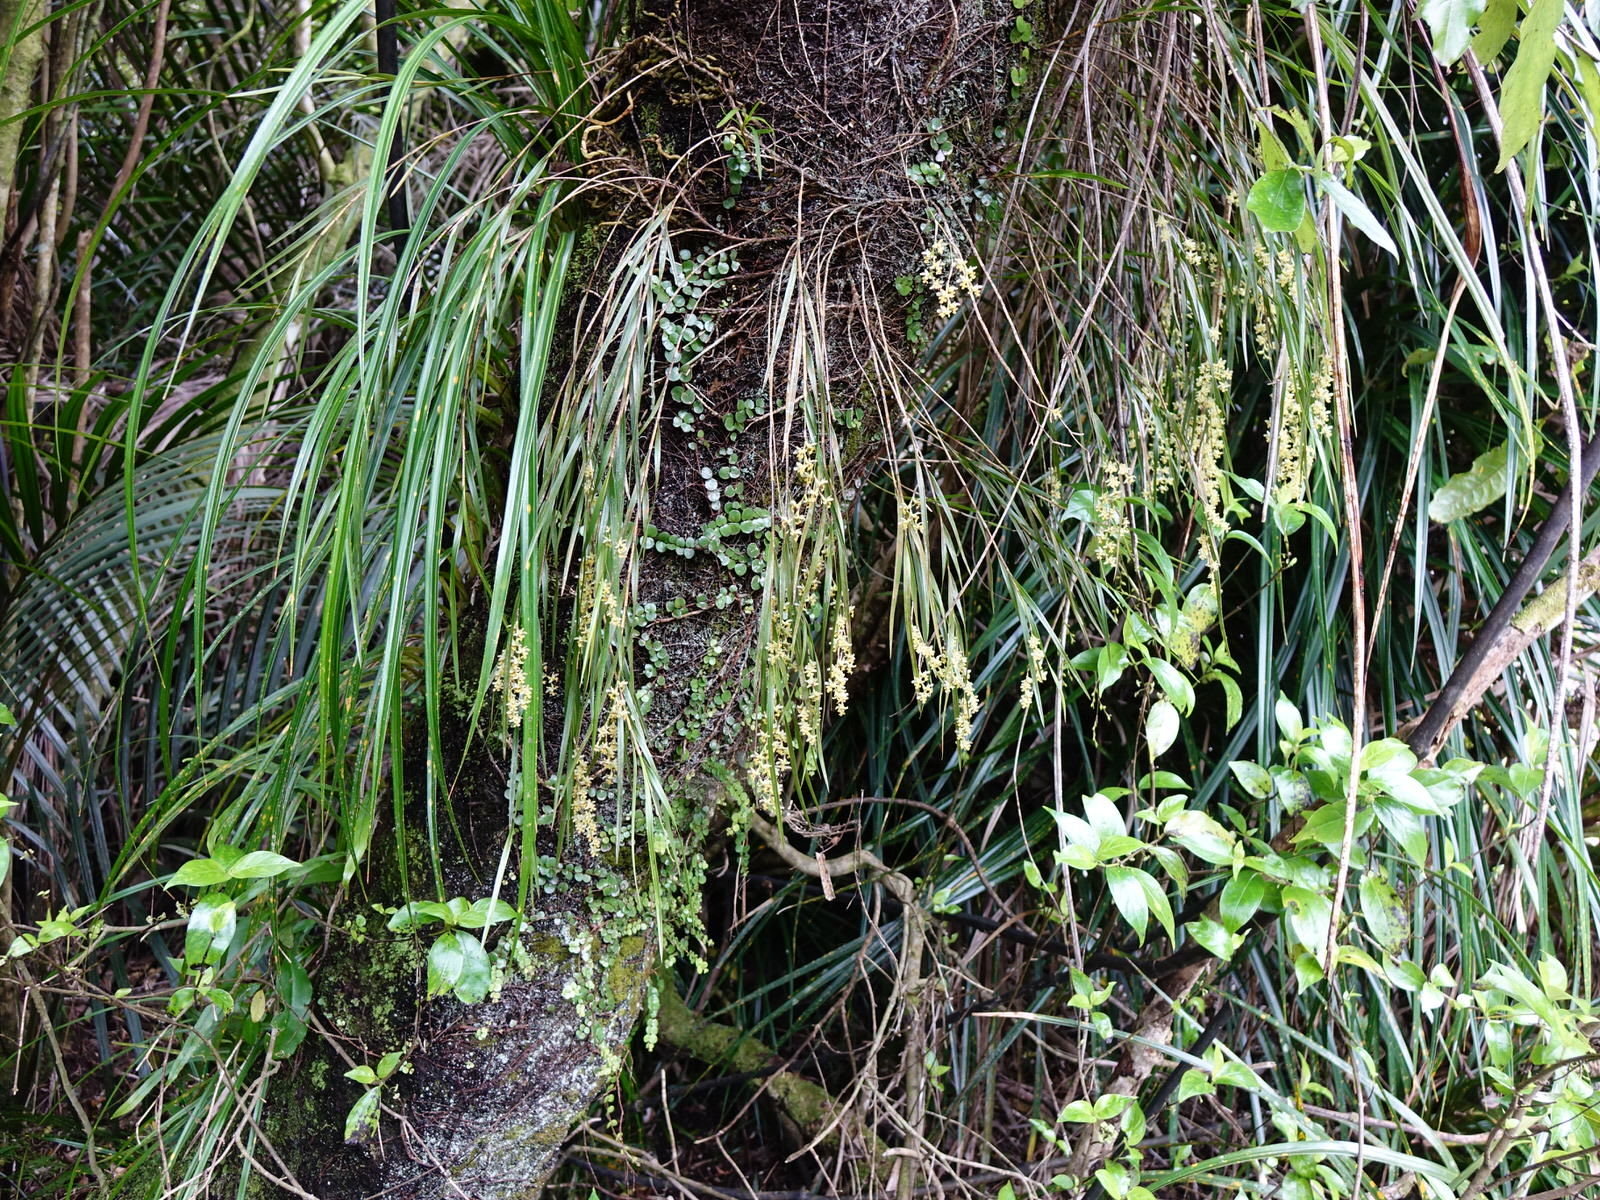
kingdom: Plantae
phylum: Tracheophyta
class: Liliopsida
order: Asparagales
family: Orchidaceae
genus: Earina
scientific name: Earina mucronata
